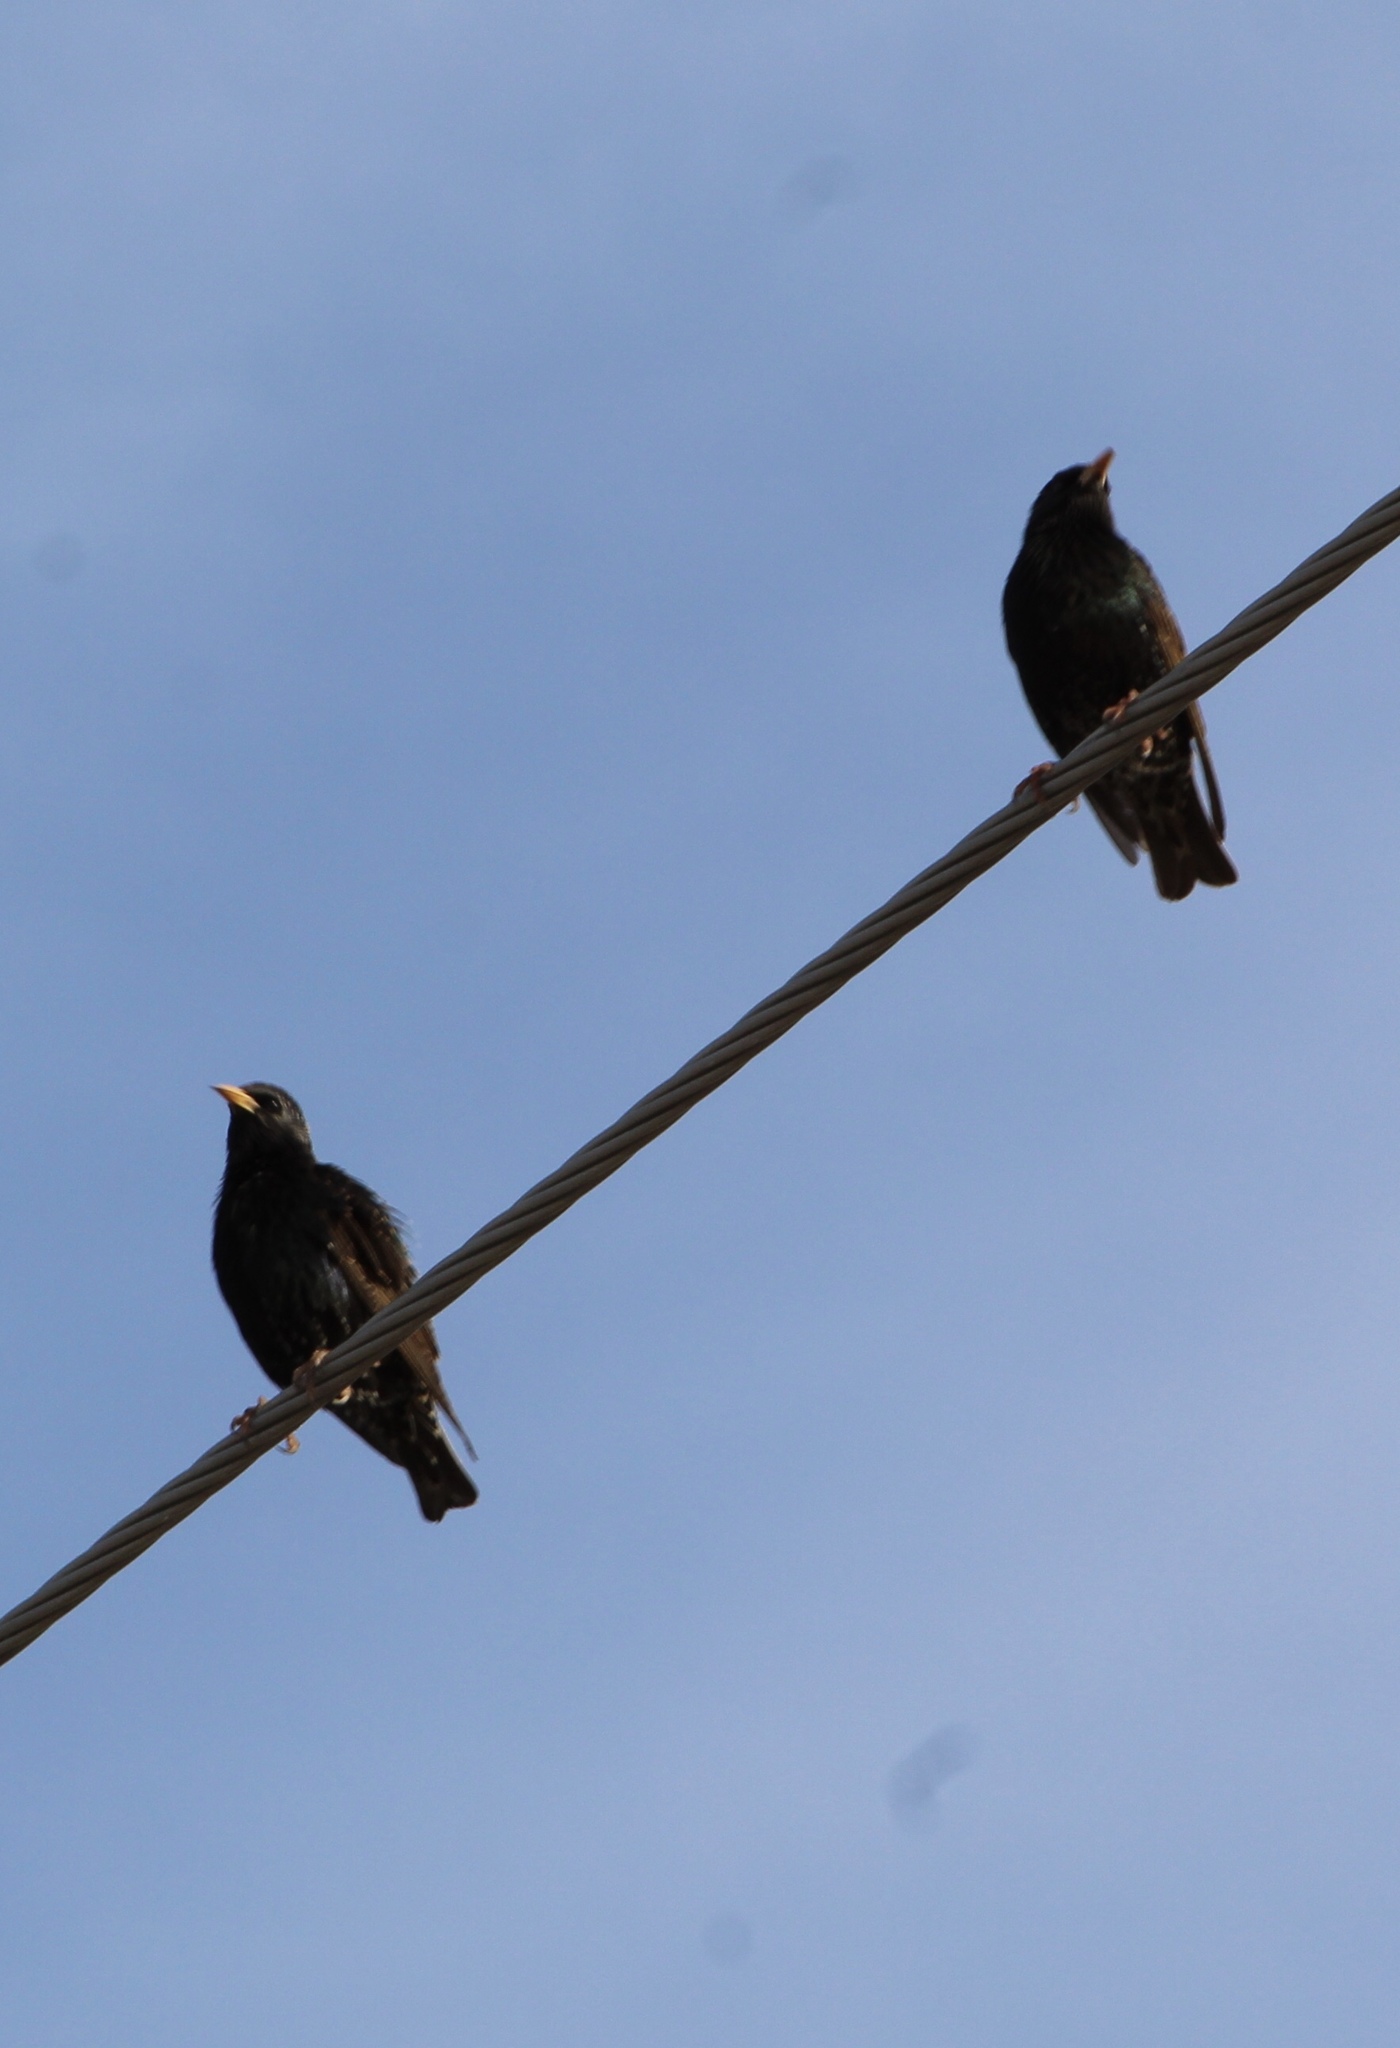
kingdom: Animalia
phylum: Chordata
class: Aves
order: Passeriformes
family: Sturnidae
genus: Sturnus
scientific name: Sturnus vulgaris
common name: Common starling
